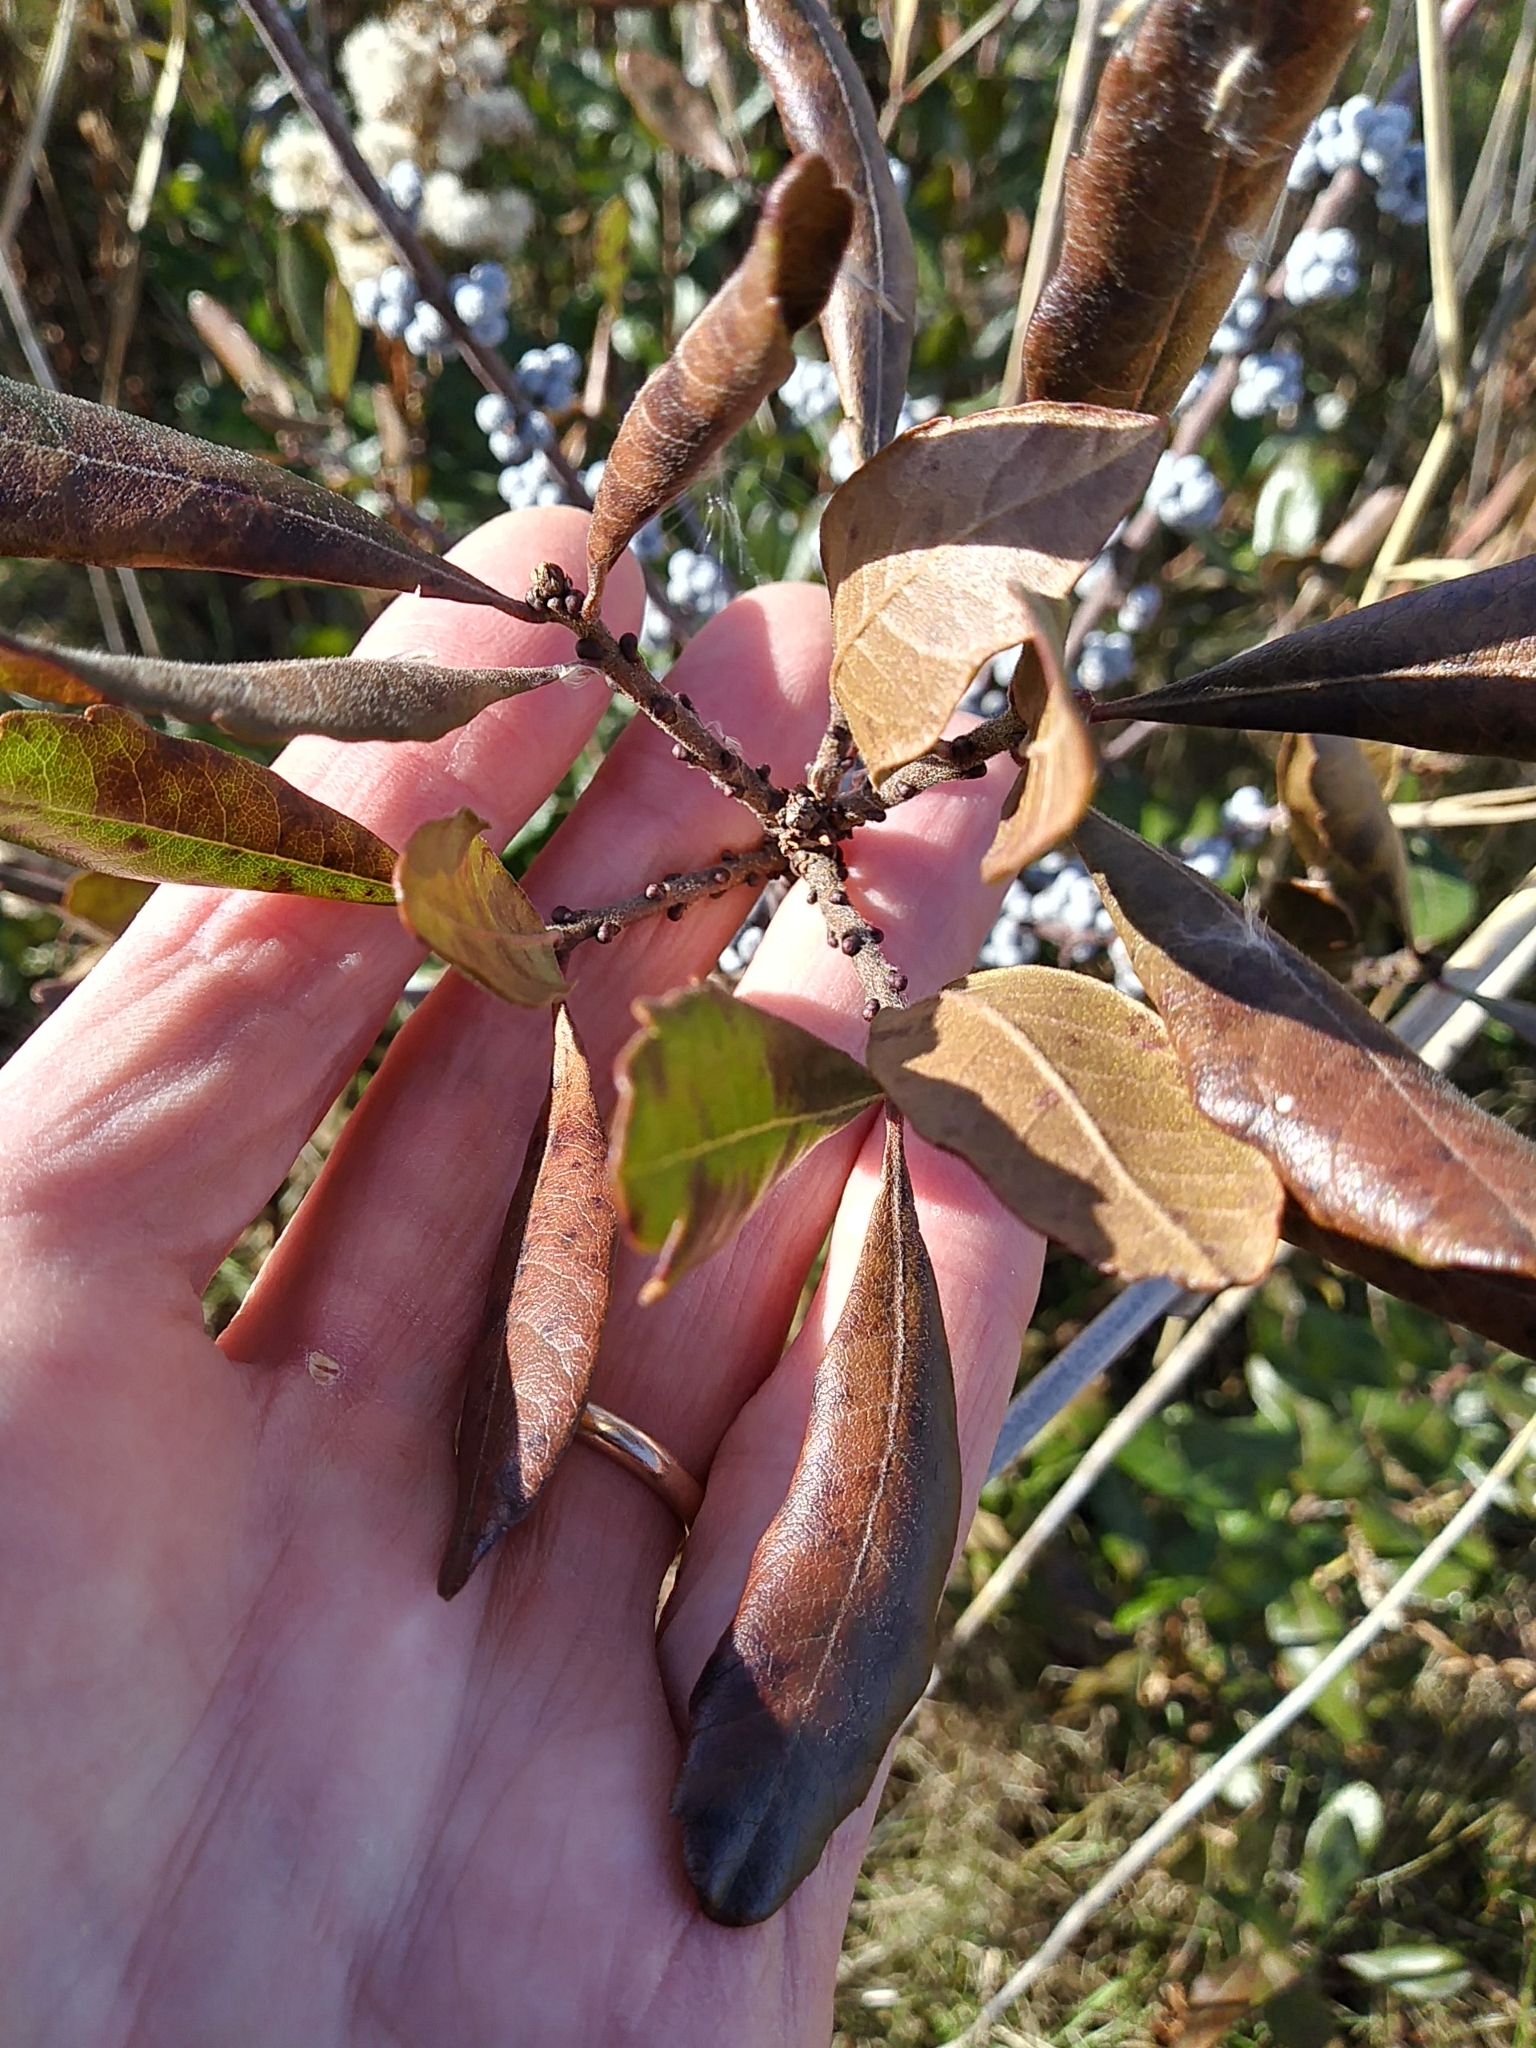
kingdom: Plantae
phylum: Tracheophyta
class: Magnoliopsida
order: Fagales
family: Myricaceae
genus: Morella
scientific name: Morella pensylvanica
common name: Northern bayberry
